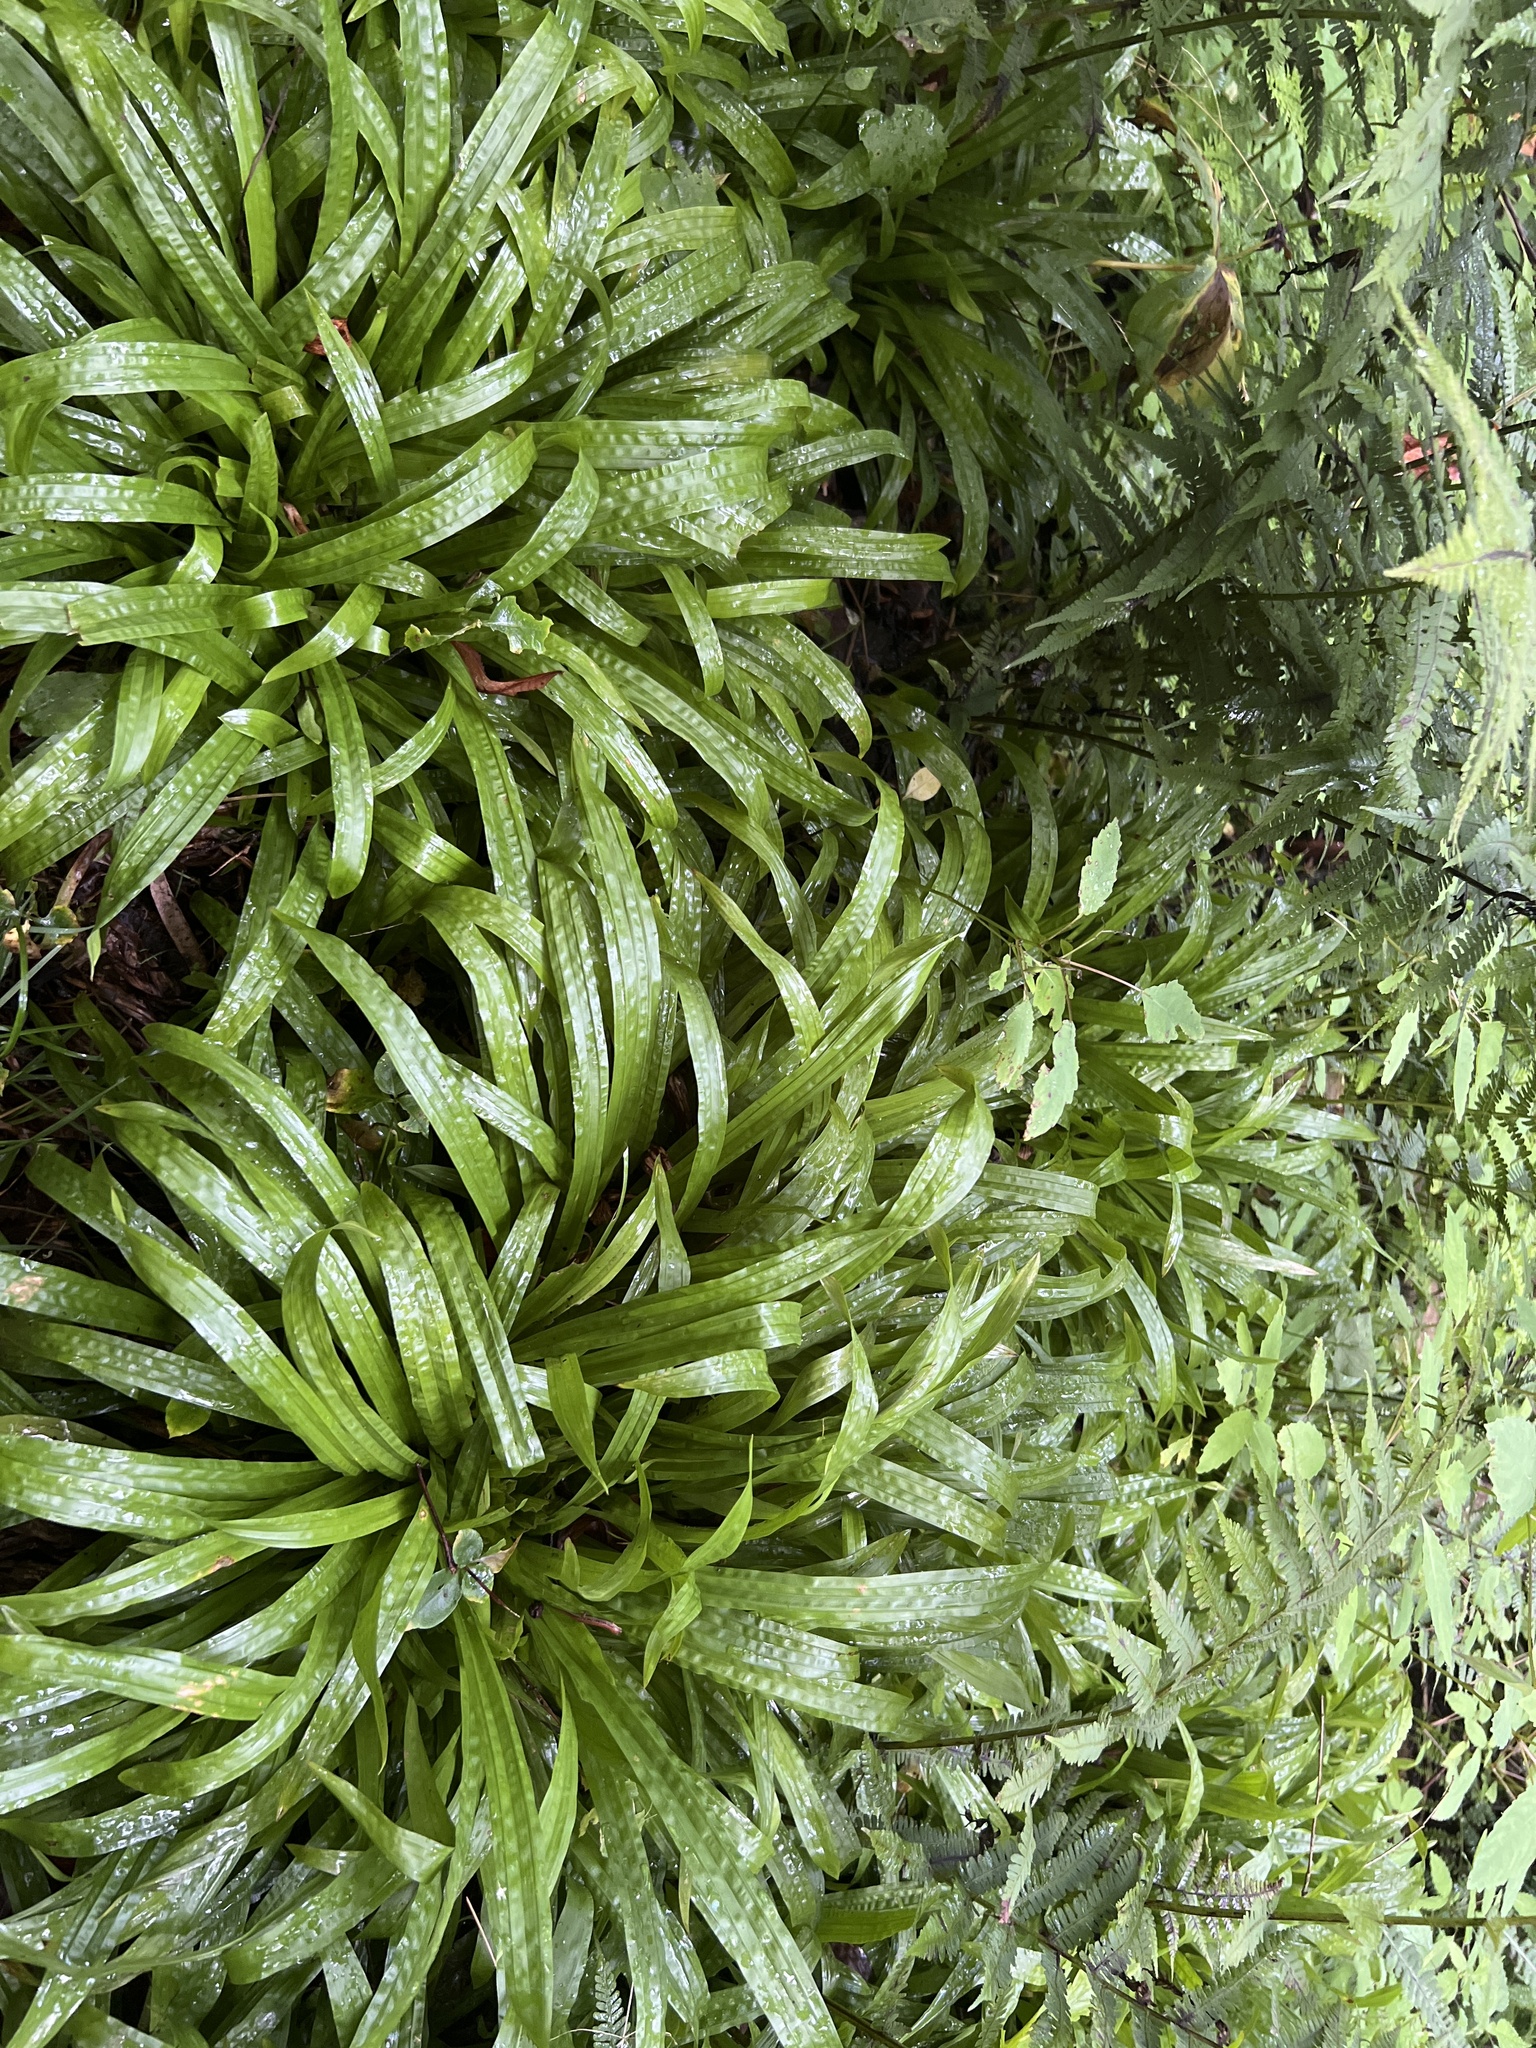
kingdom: Plantae
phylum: Tracheophyta
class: Liliopsida
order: Poales
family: Cyperaceae
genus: Carex
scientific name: Carex plantaginea
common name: Plantain-leaved sedge
